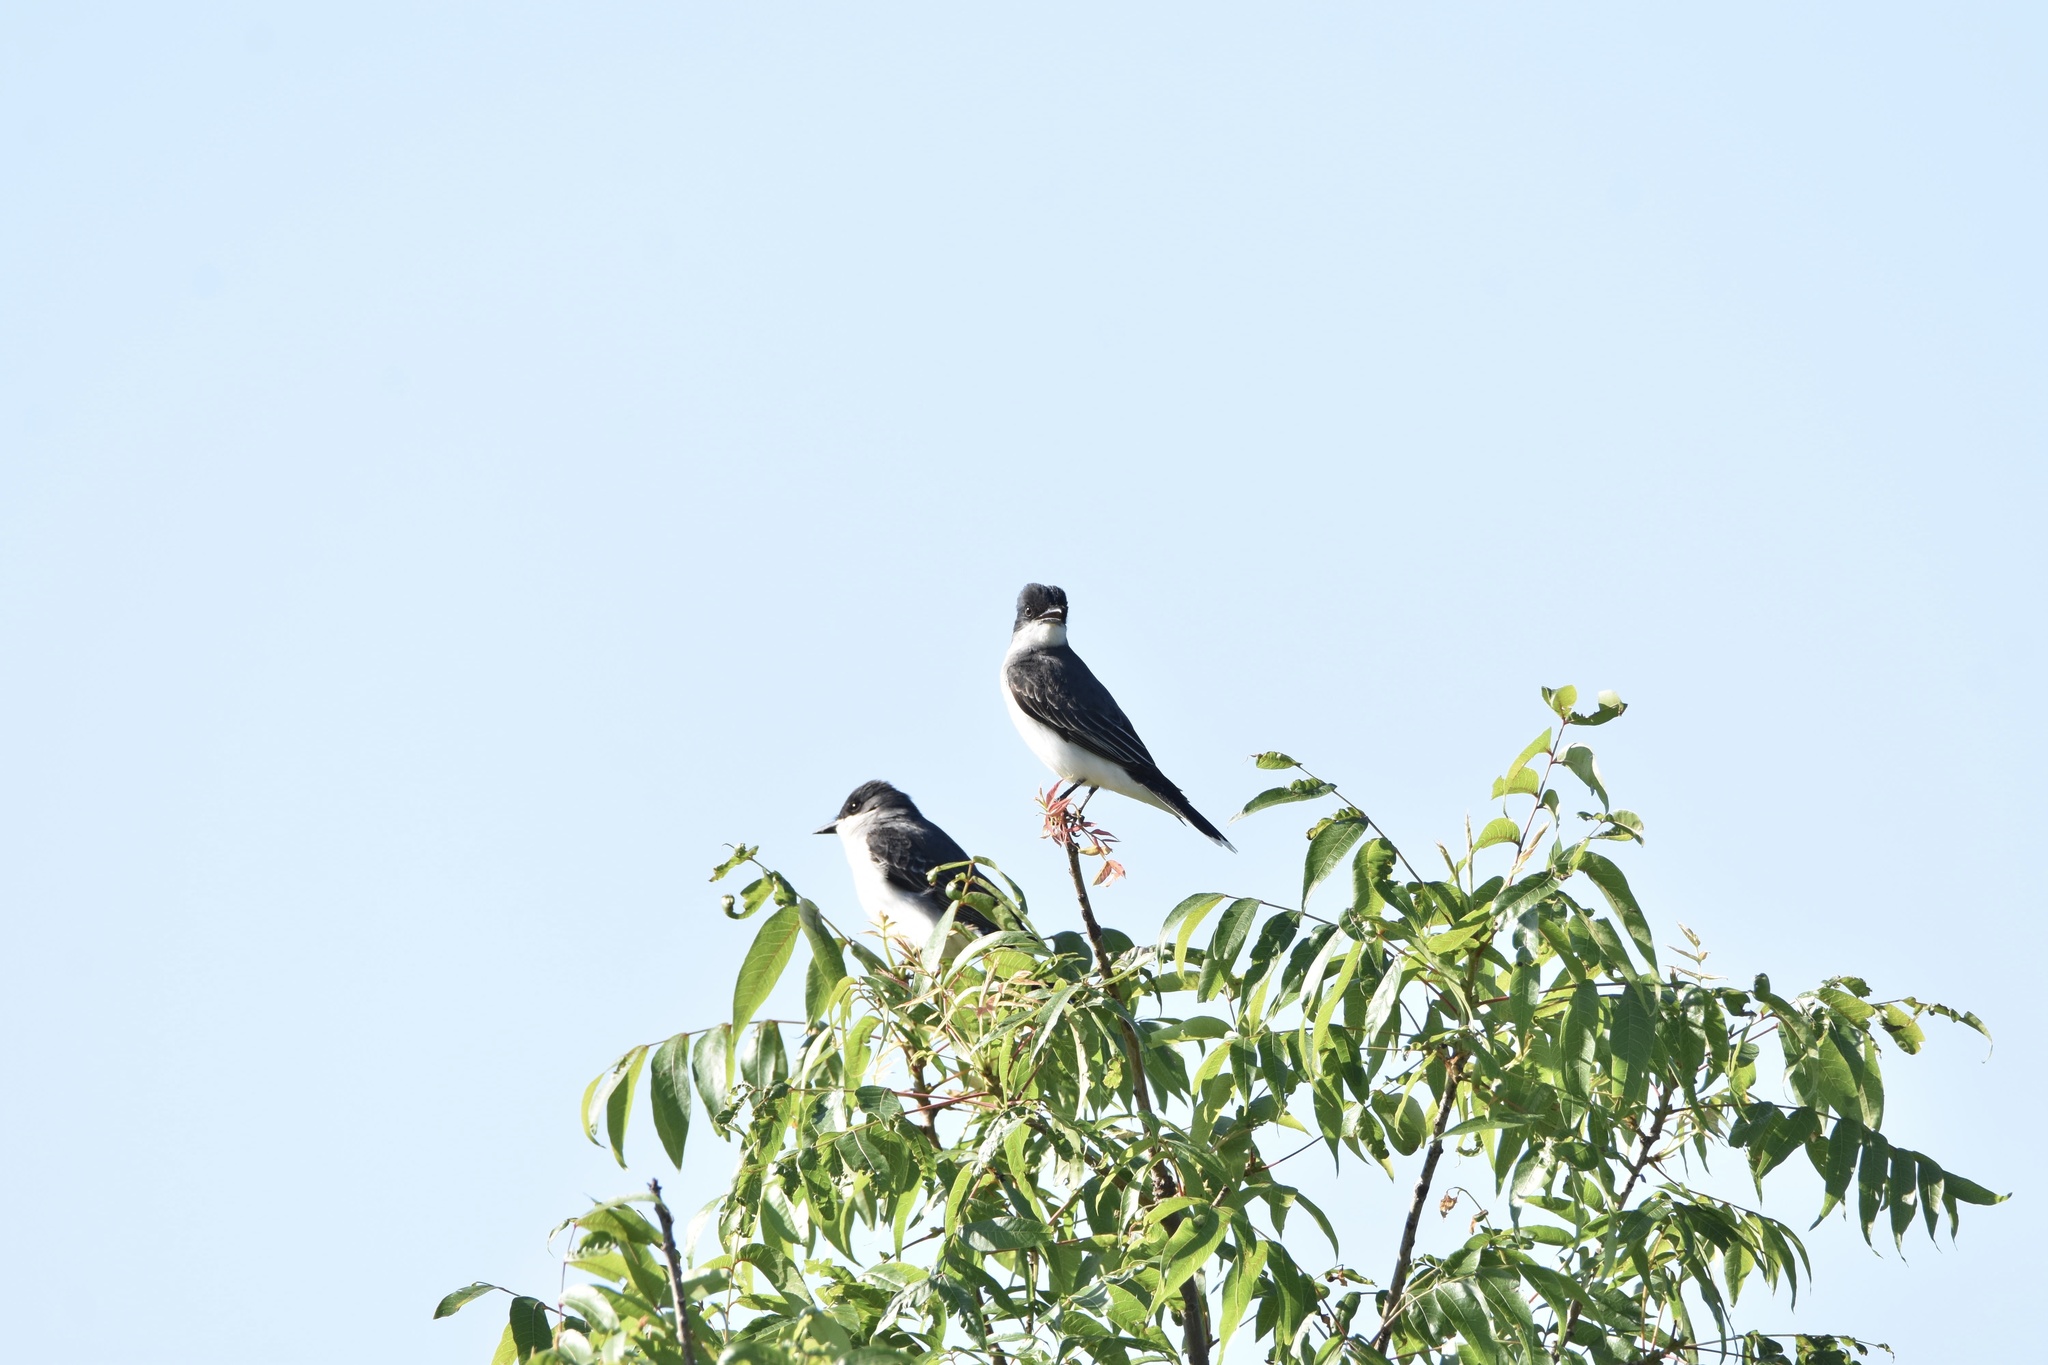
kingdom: Animalia
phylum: Chordata
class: Aves
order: Passeriformes
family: Tyrannidae
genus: Tyrannus
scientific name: Tyrannus tyrannus
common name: Eastern kingbird
